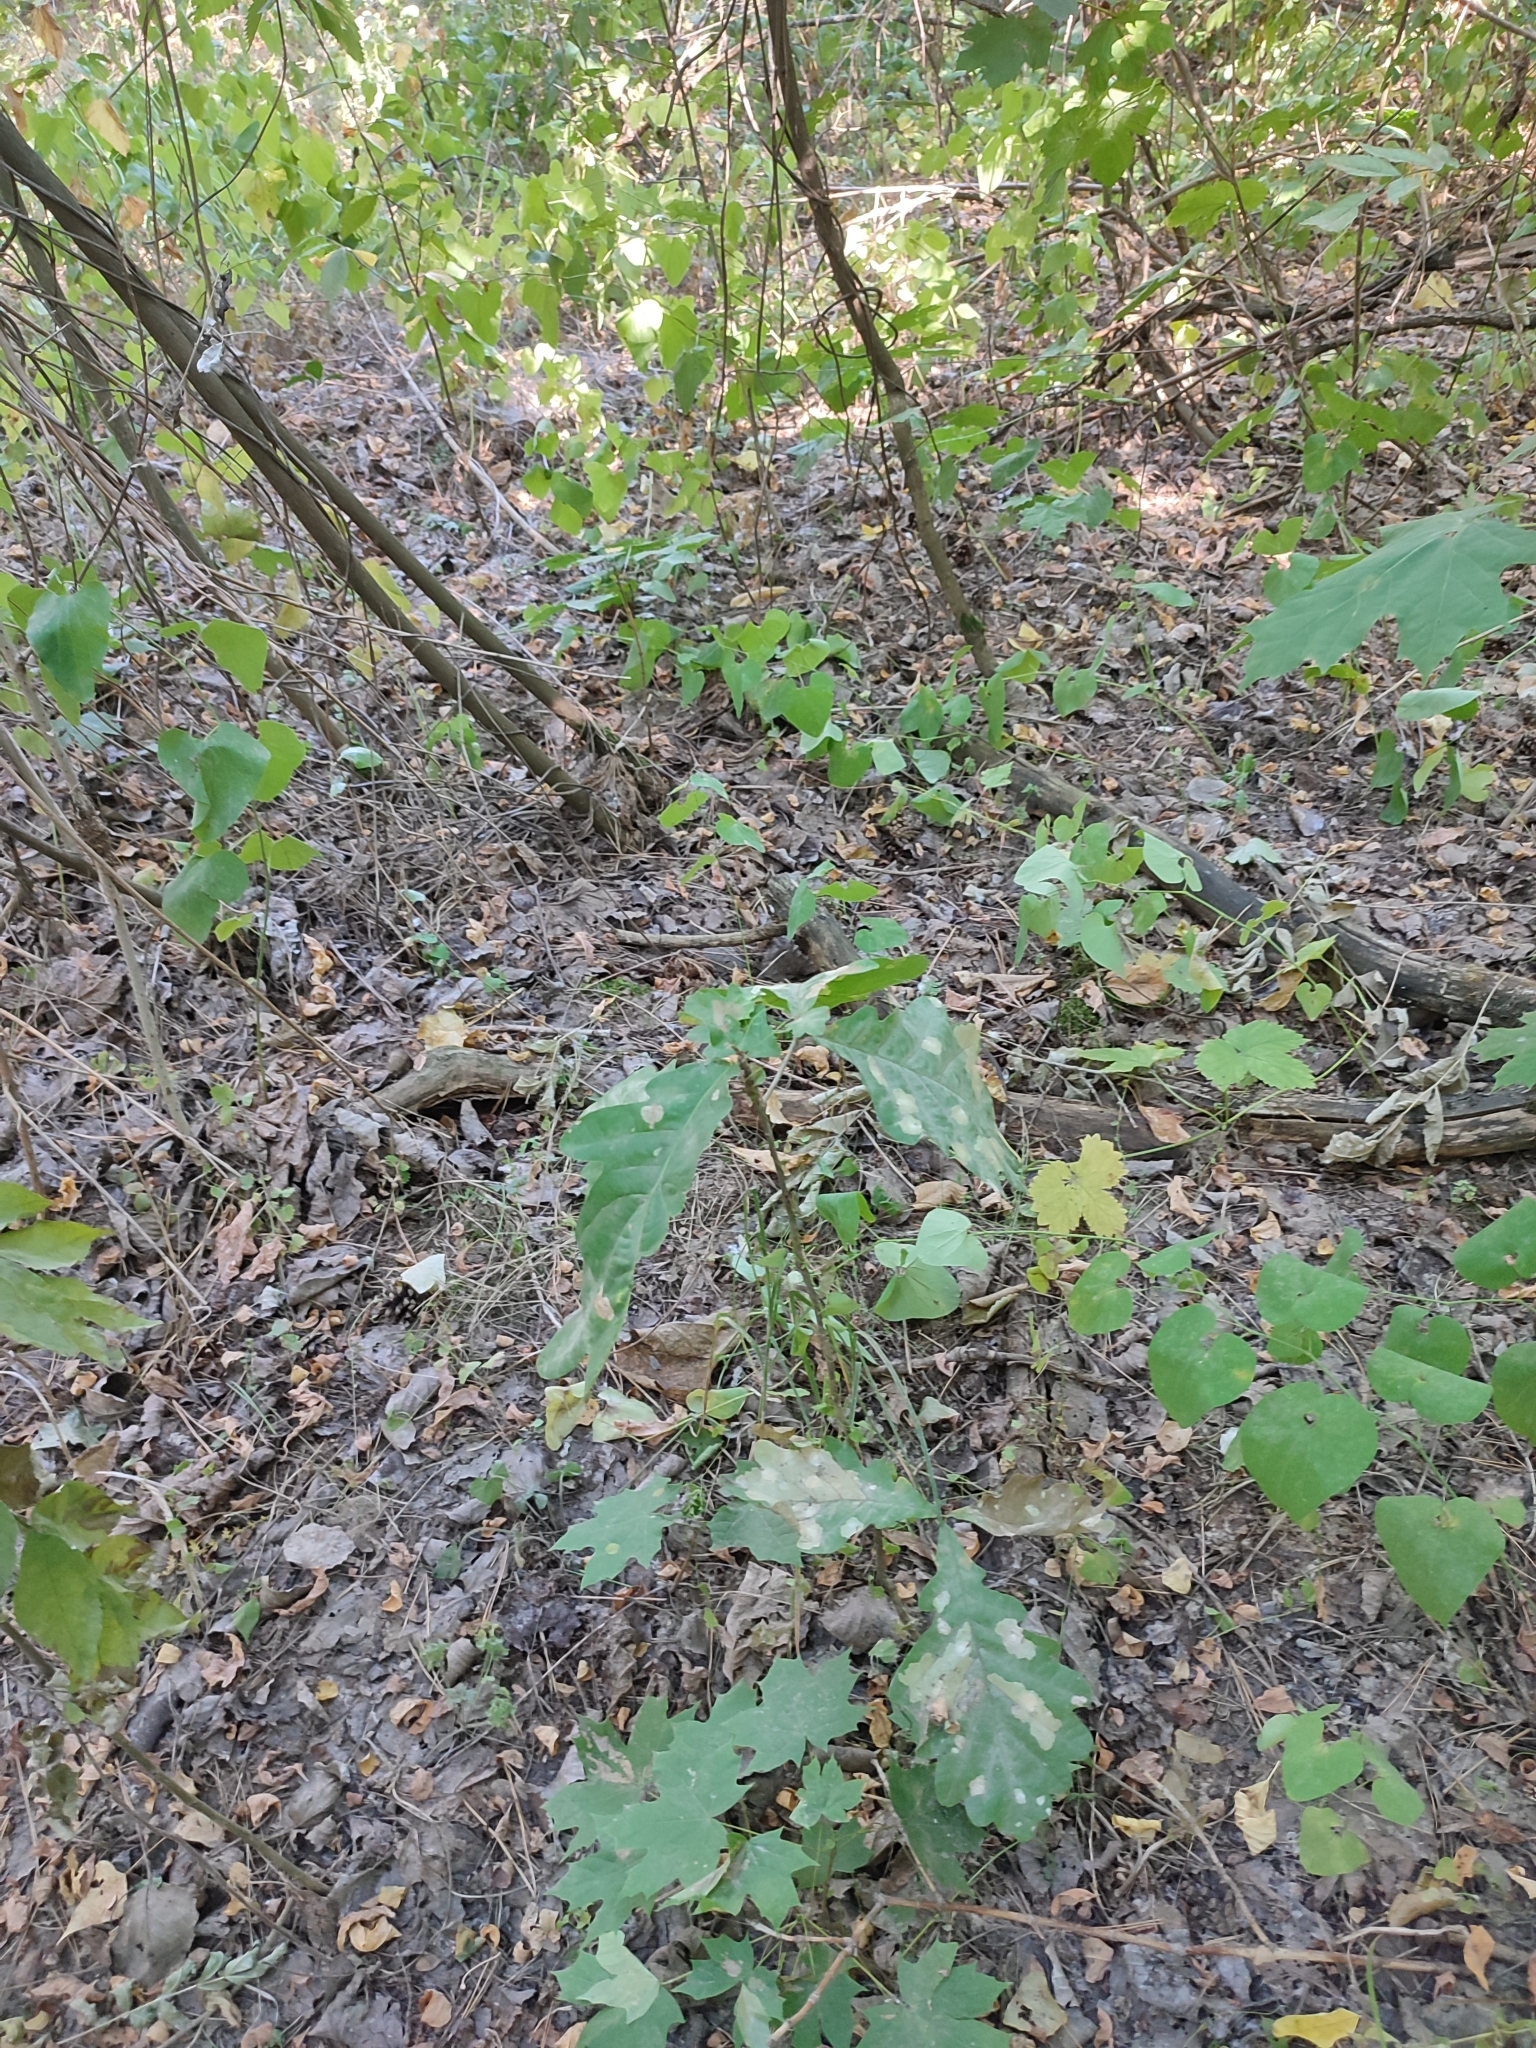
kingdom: Plantae
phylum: Tracheophyta
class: Magnoliopsida
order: Fagales
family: Fagaceae
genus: Quercus
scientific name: Quercus robur
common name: Pedunculate oak
